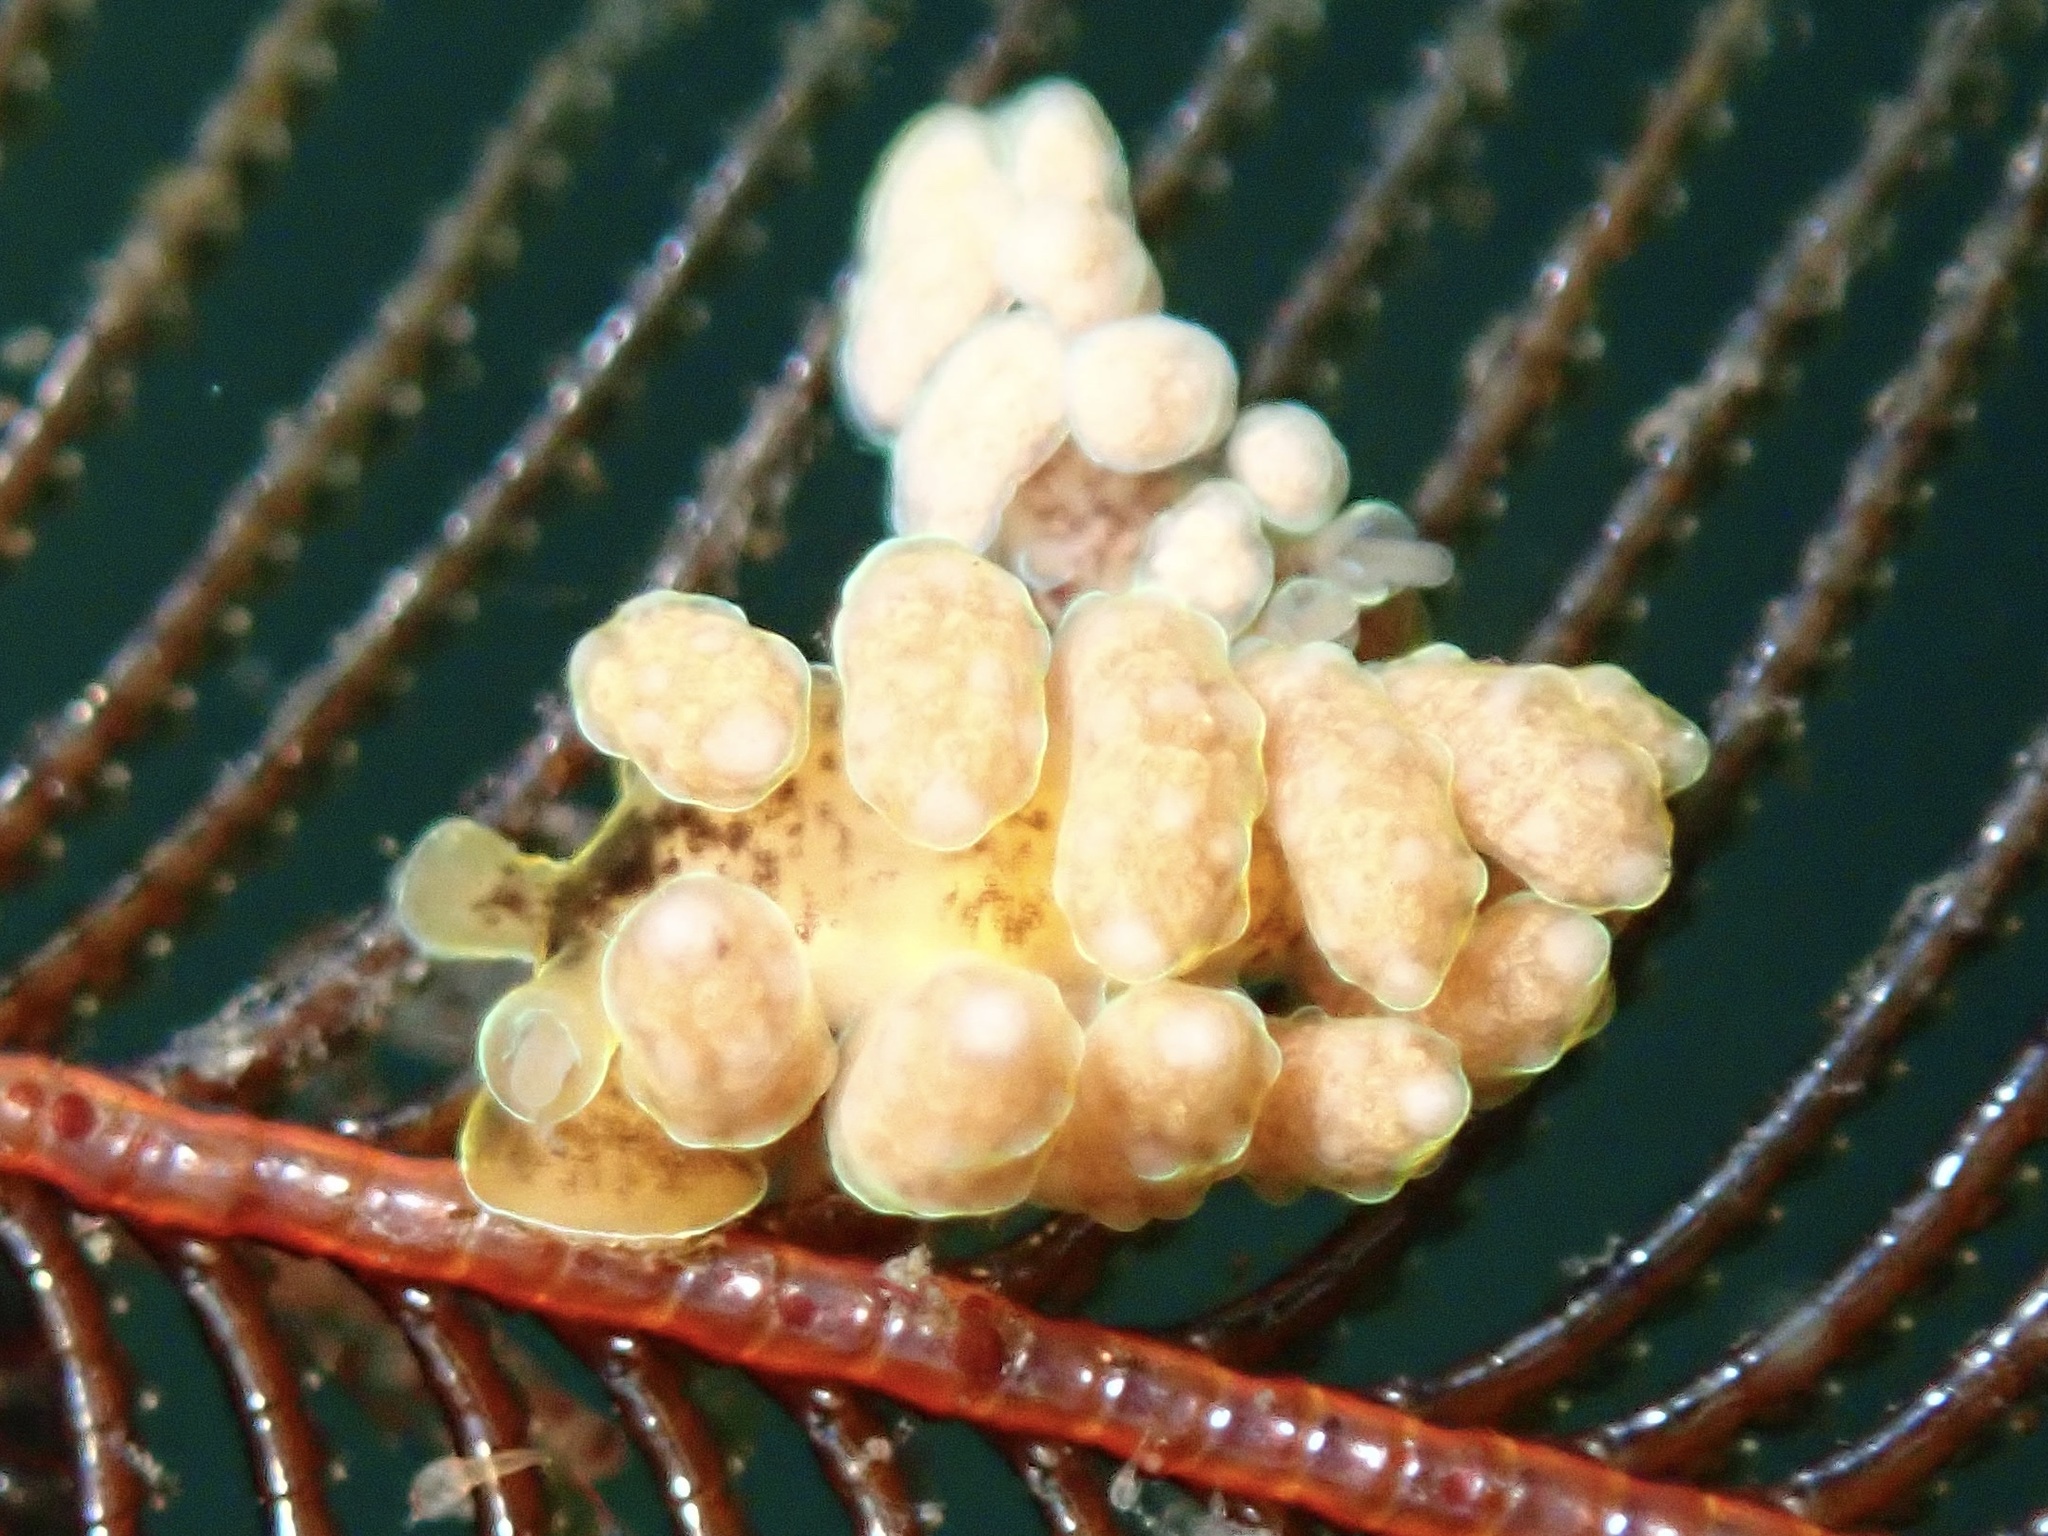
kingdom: Animalia
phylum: Mollusca
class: Gastropoda
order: Nudibranchia
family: Dotidae
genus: Doto
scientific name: Doto columbiana
